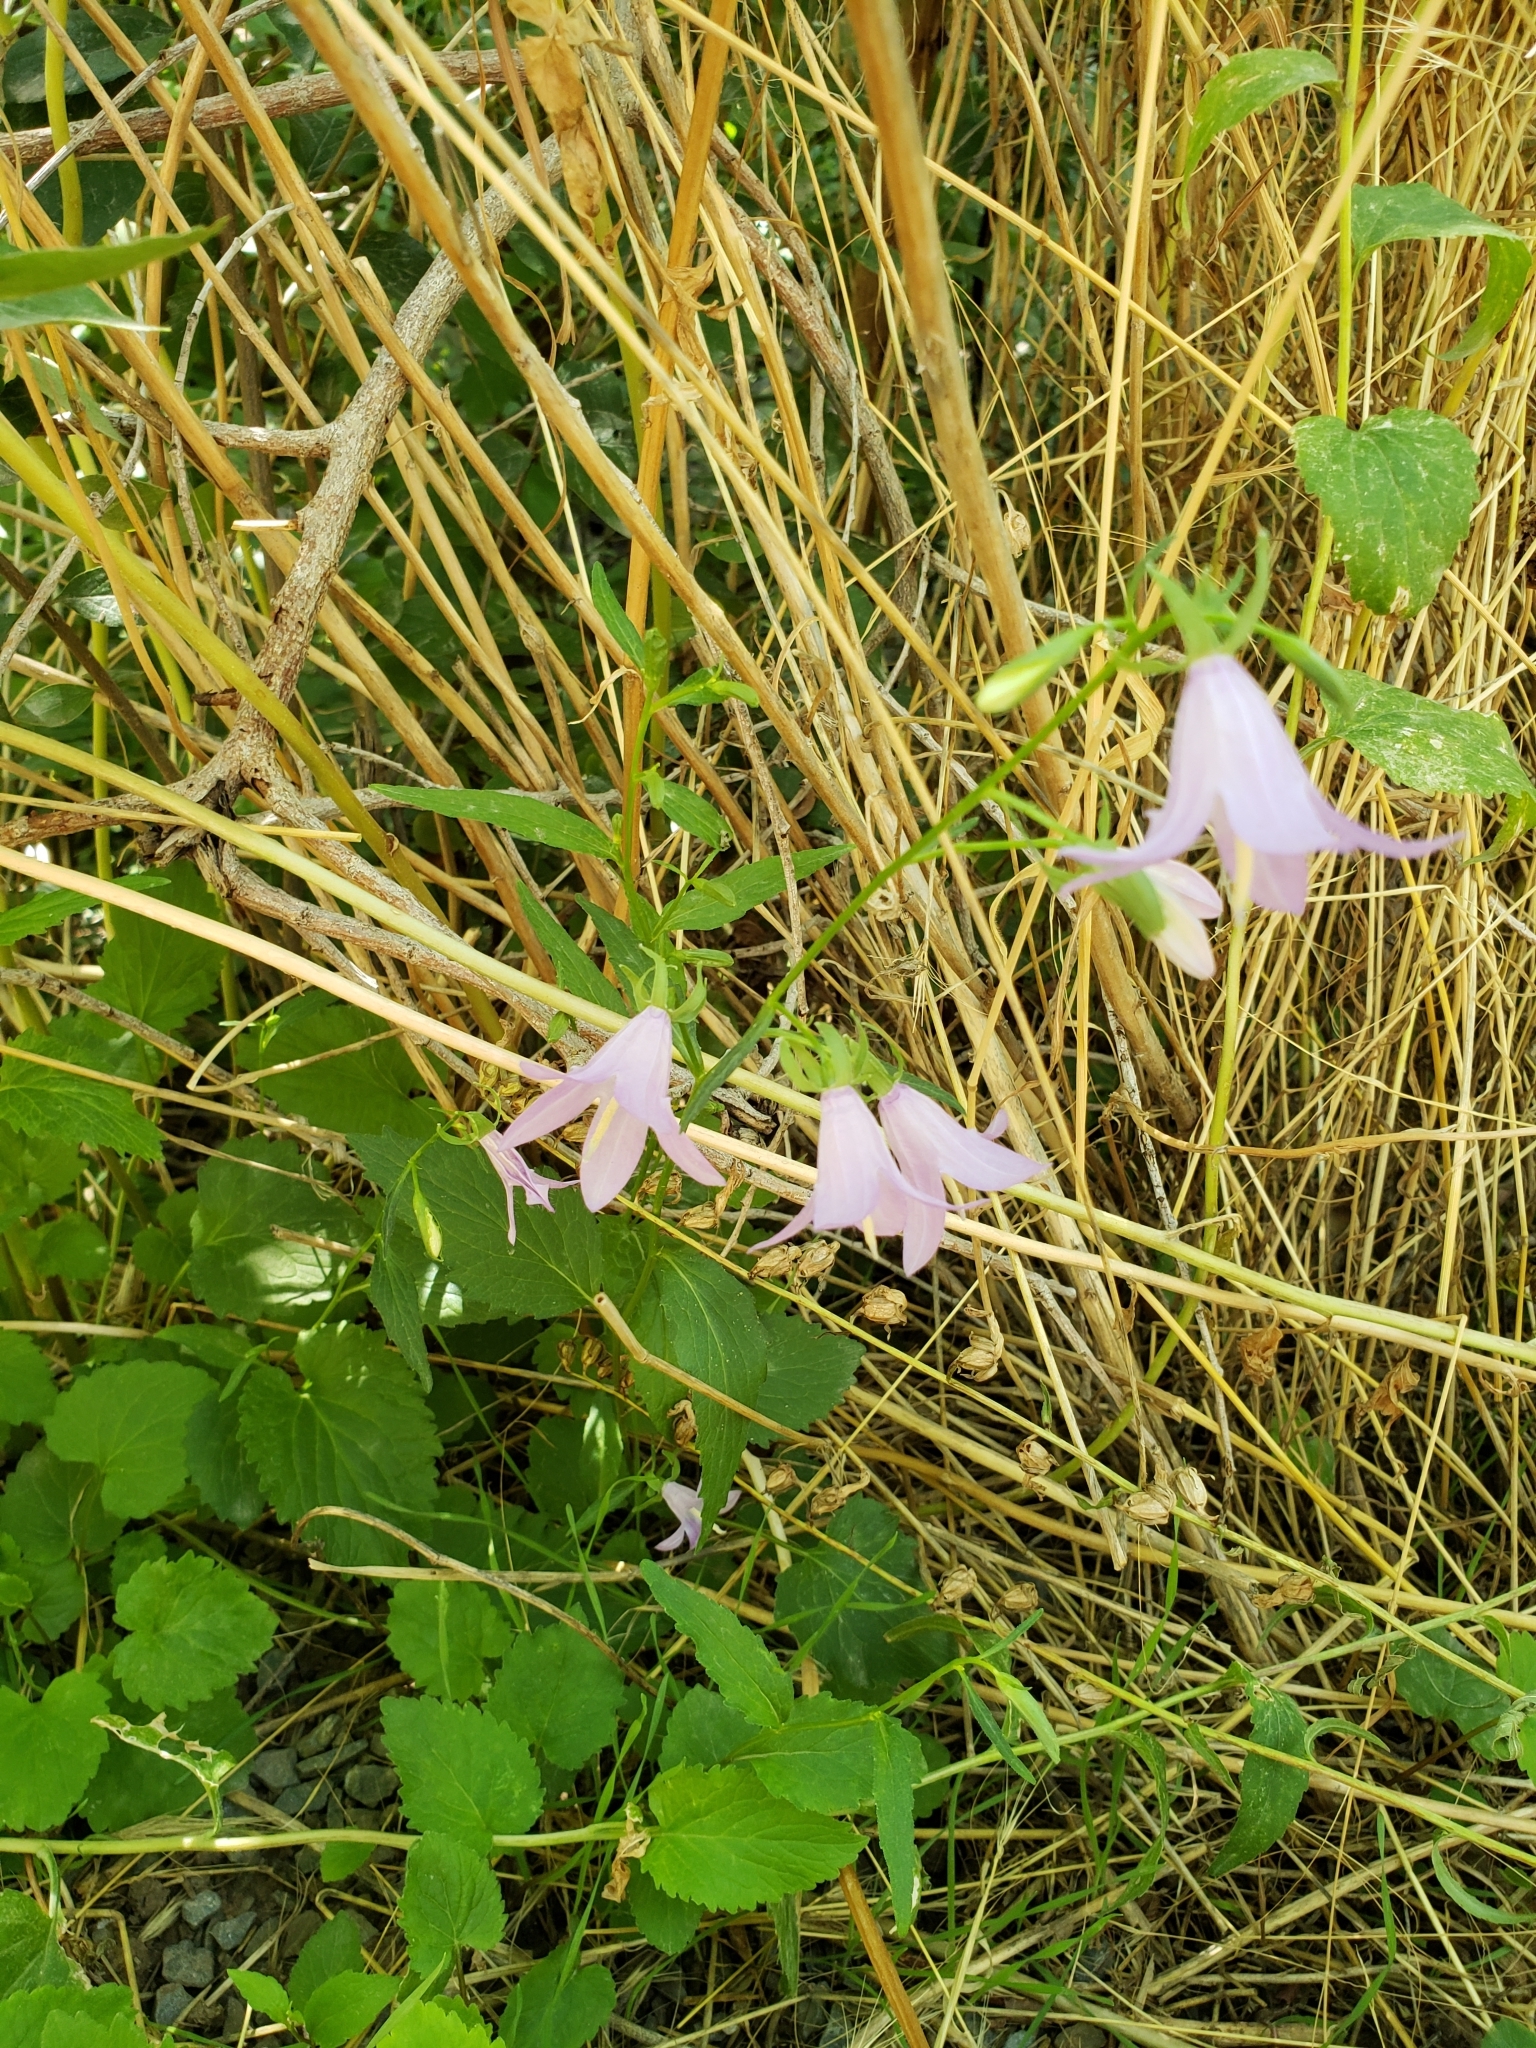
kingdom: Plantae
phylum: Tracheophyta
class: Magnoliopsida
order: Asterales
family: Campanulaceae
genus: Campanula
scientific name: Campanula petiolata
